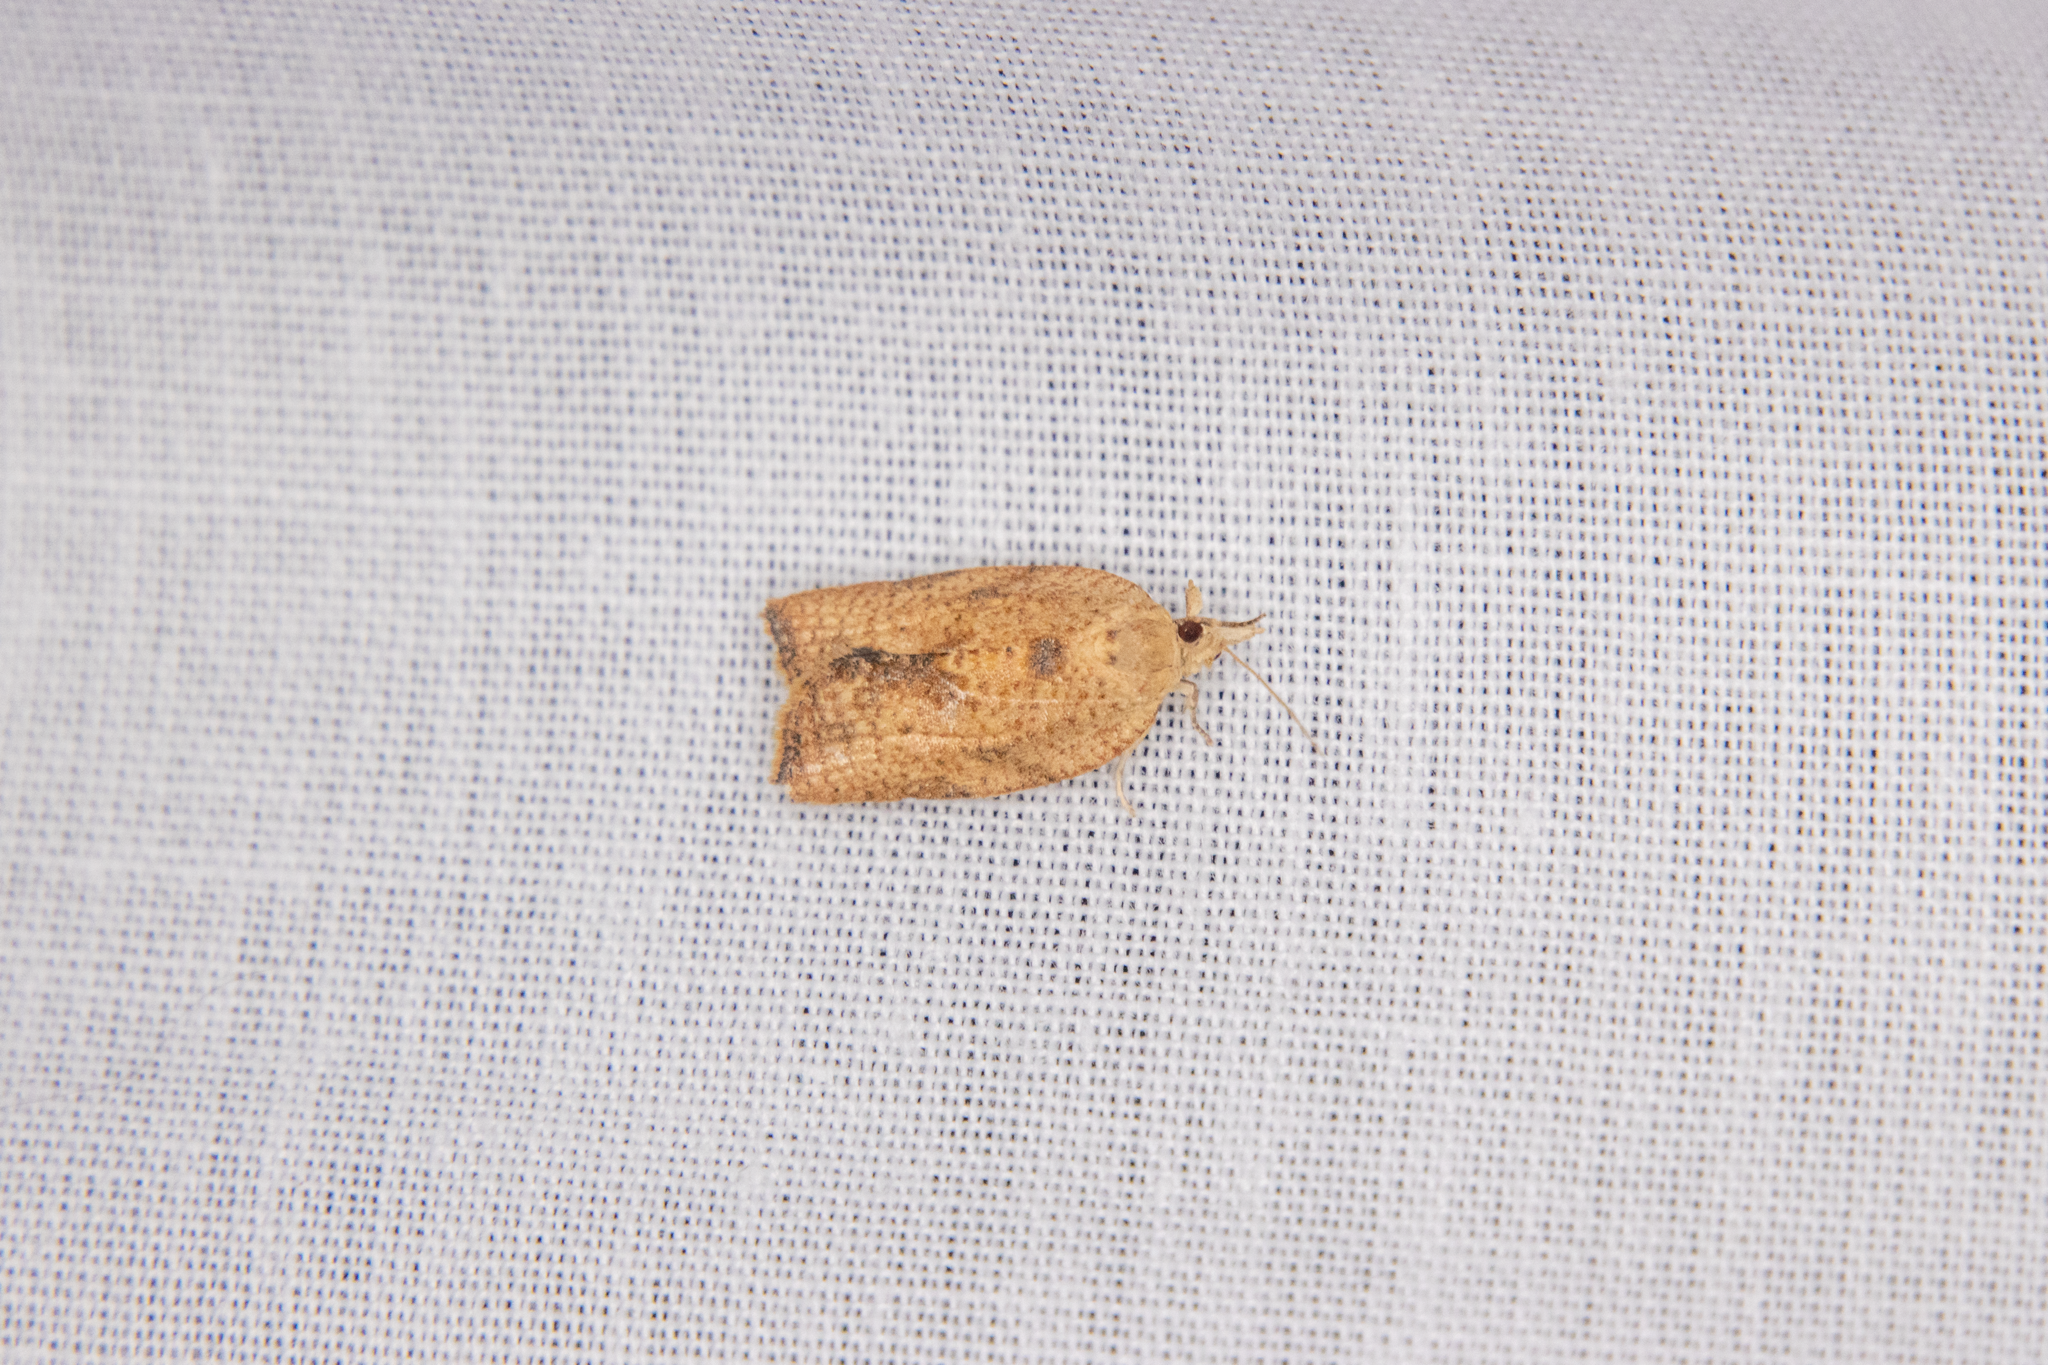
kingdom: Animalia
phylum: Arthropoda
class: Insecta
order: Lepidoptera
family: Tortricidae
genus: Epiphyas
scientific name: Epiphyas postvittana
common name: Light brown apple moth
